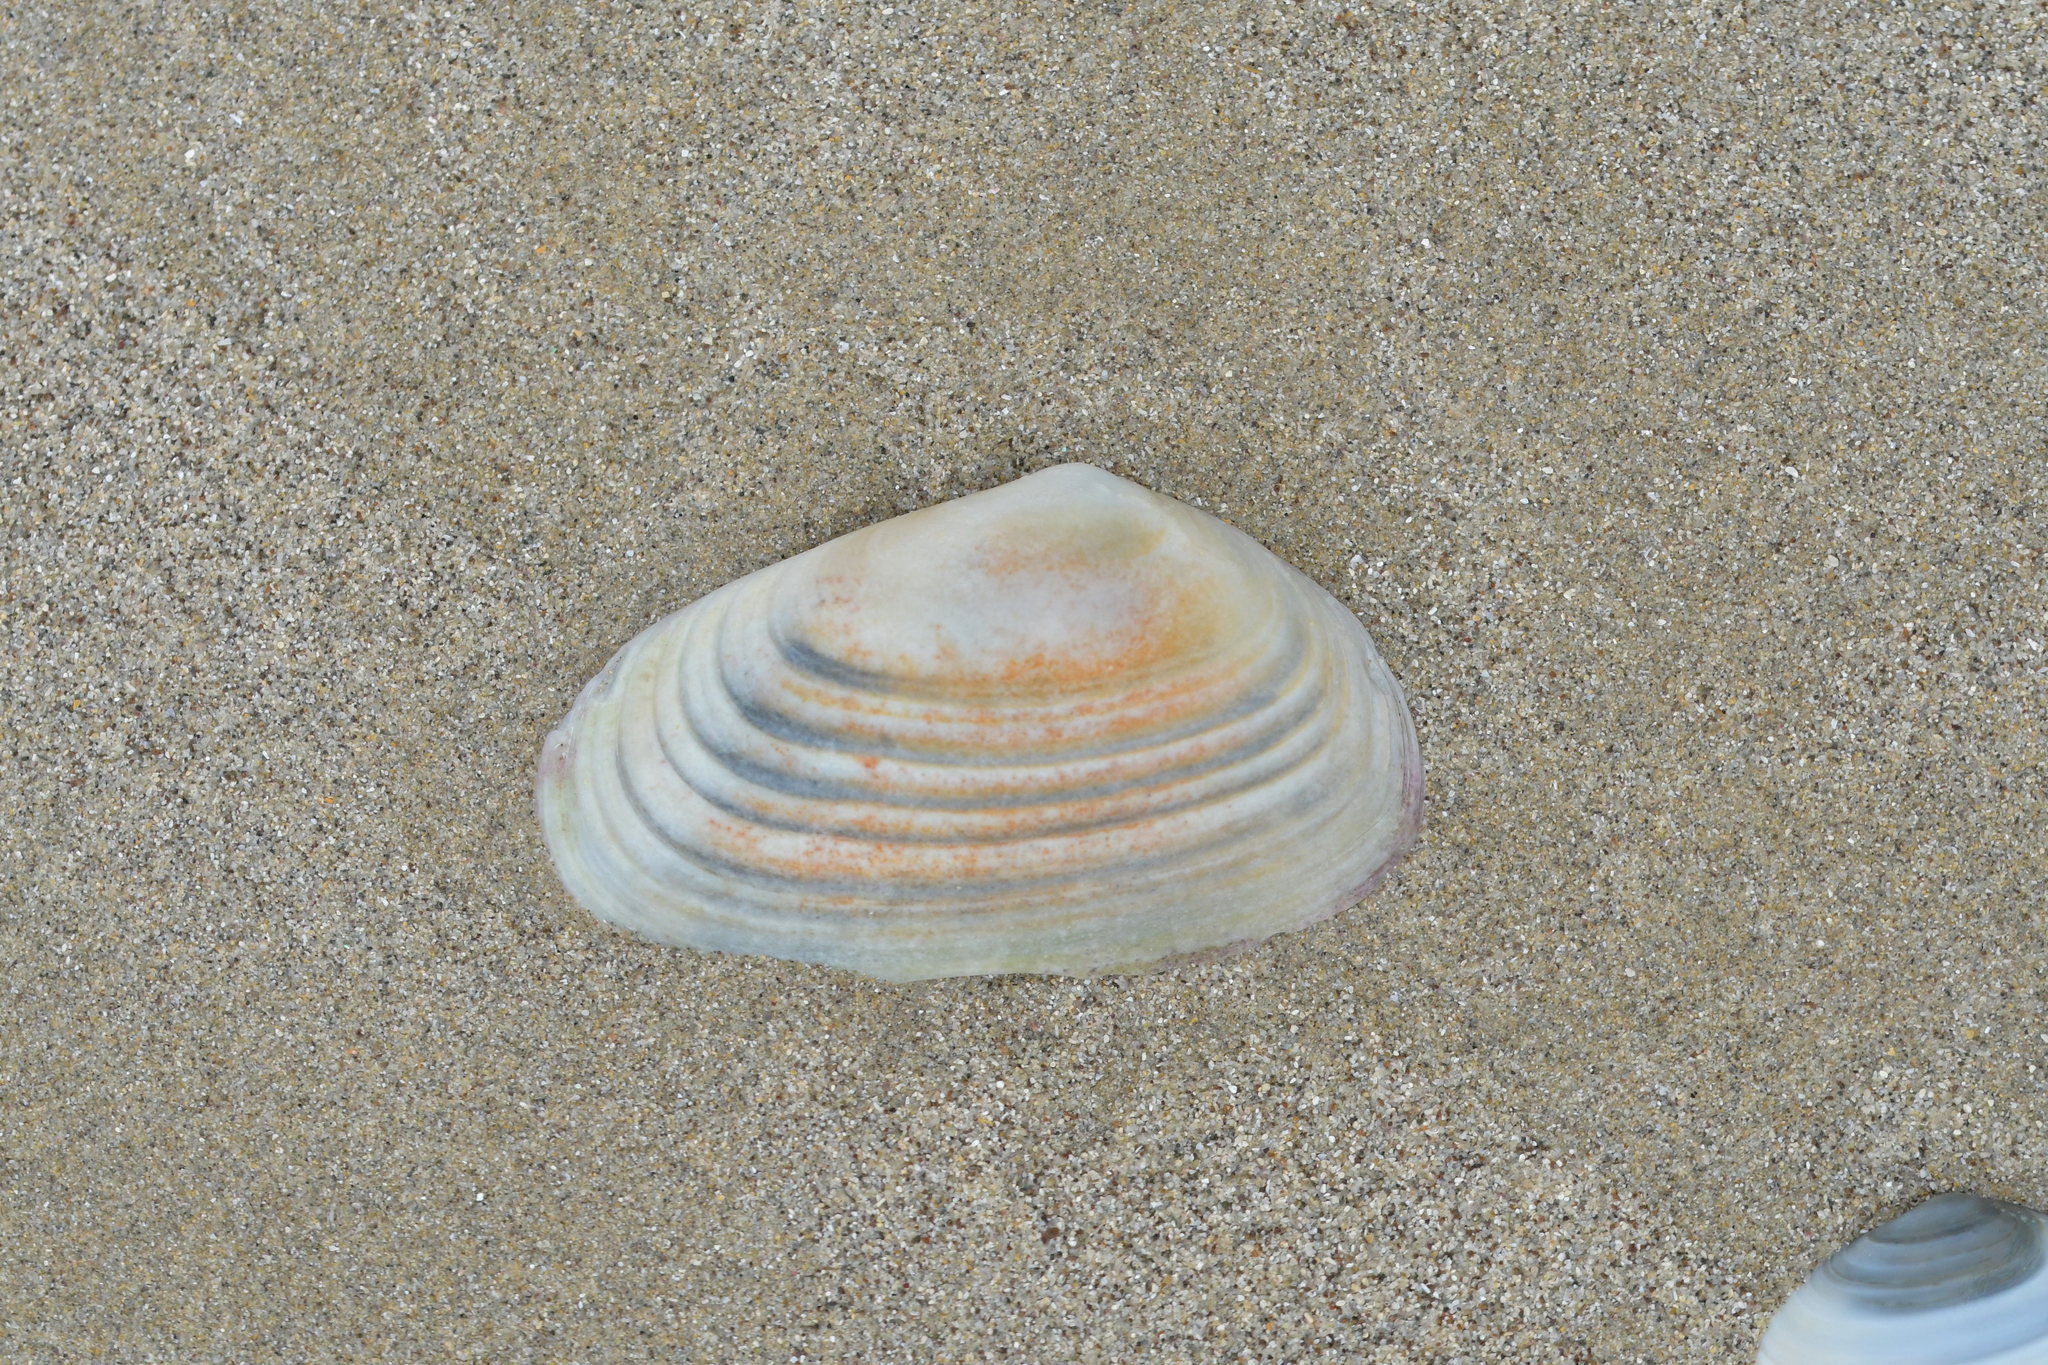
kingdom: Animalia
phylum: Mollusca
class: Bivalvia
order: Venerida
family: Mesodesmatidae
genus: Paphies
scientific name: Paphies subtriangulata
